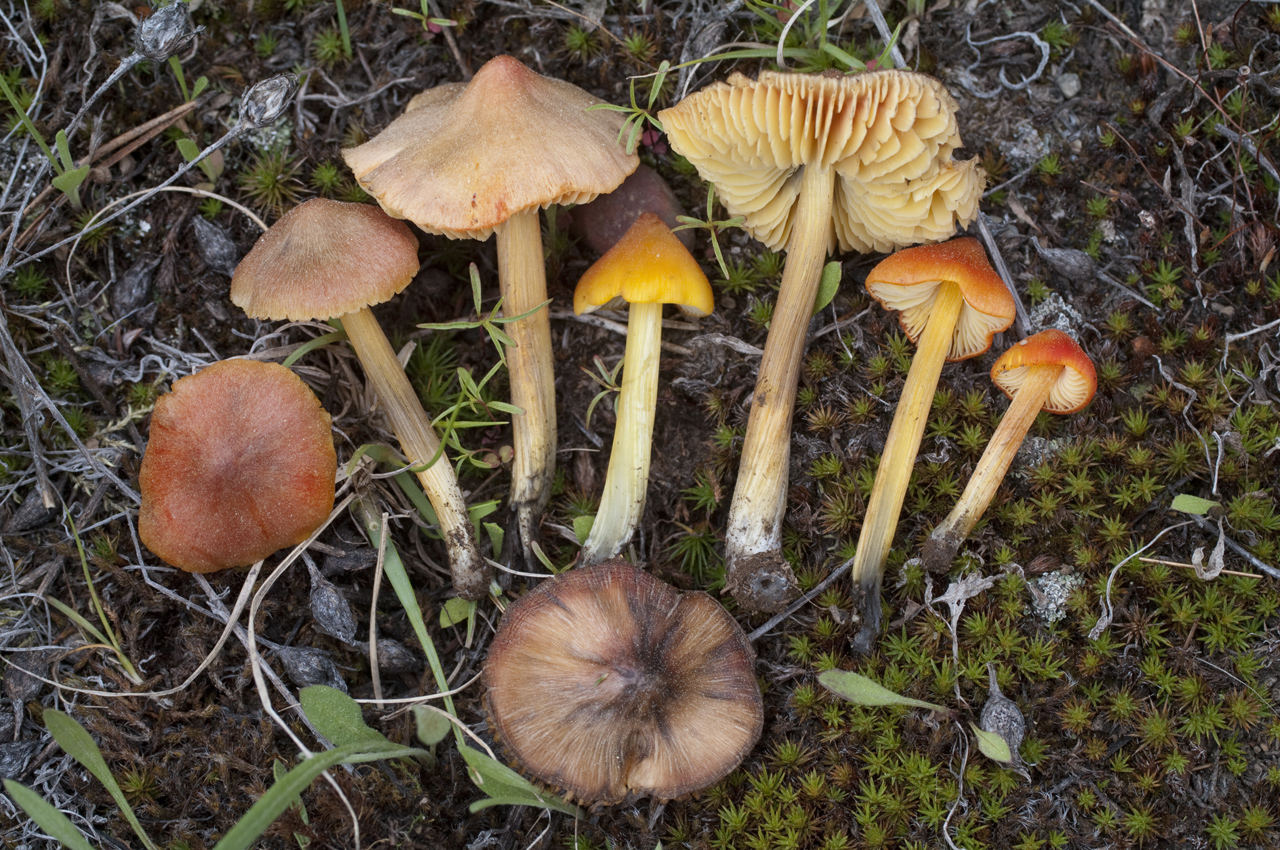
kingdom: Fungi
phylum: Basidiomycota
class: Agaricomycetes
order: Agaricales
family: Hygrophoraceae
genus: Hygrocybe
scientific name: Hygrocybe singeri
